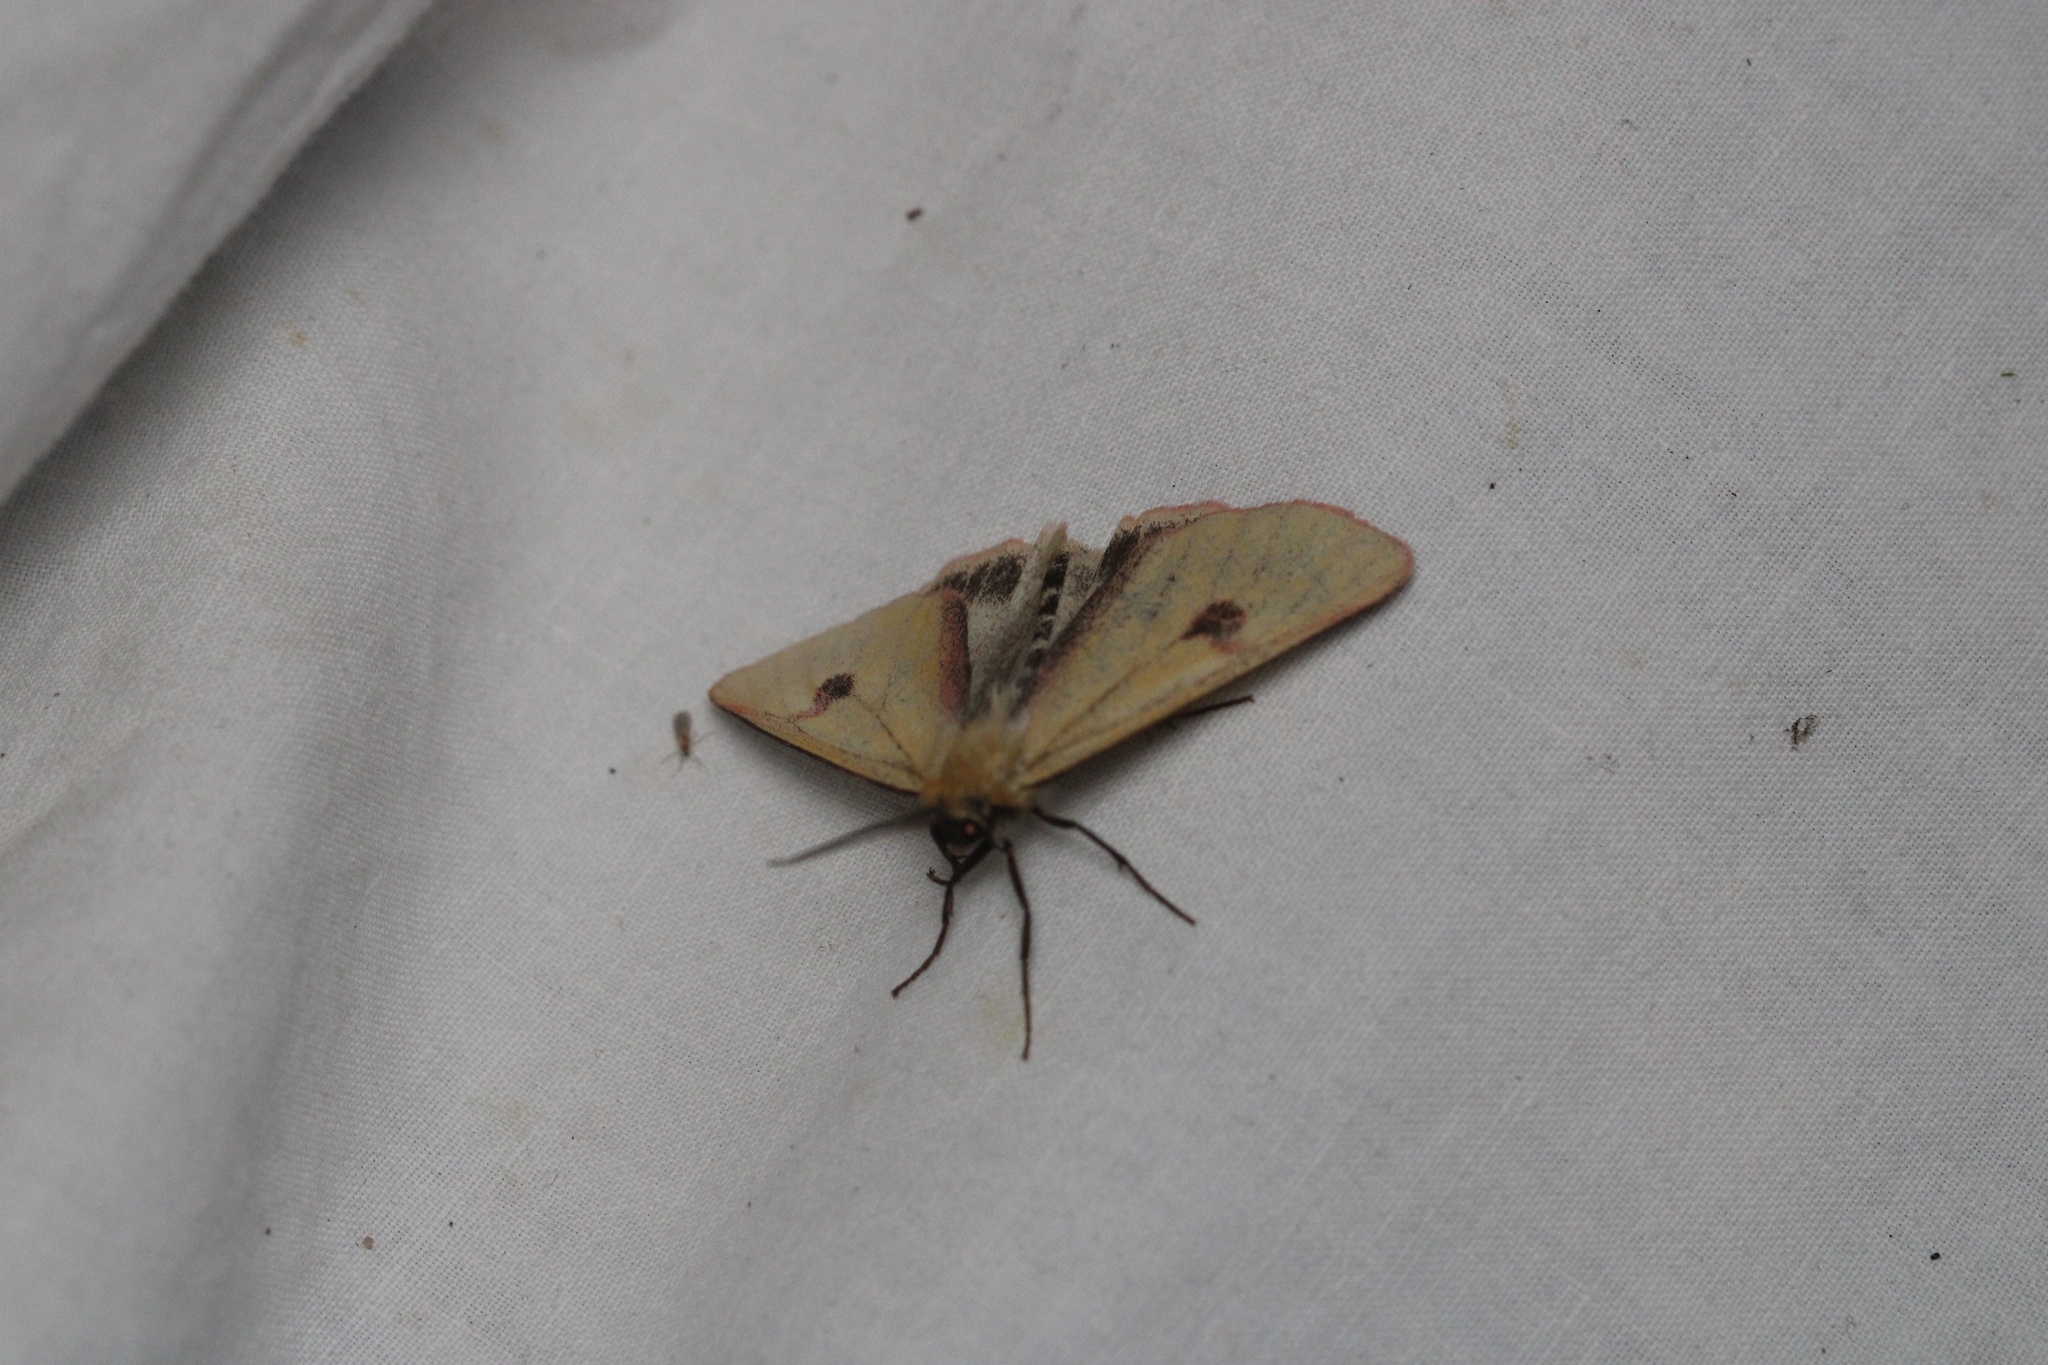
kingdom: Animalia
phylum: Arthropoda
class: Insecta
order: Lepidoptera
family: Erebidae
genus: Diacrisia
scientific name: Diacrisia sannio
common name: Clouded buff
